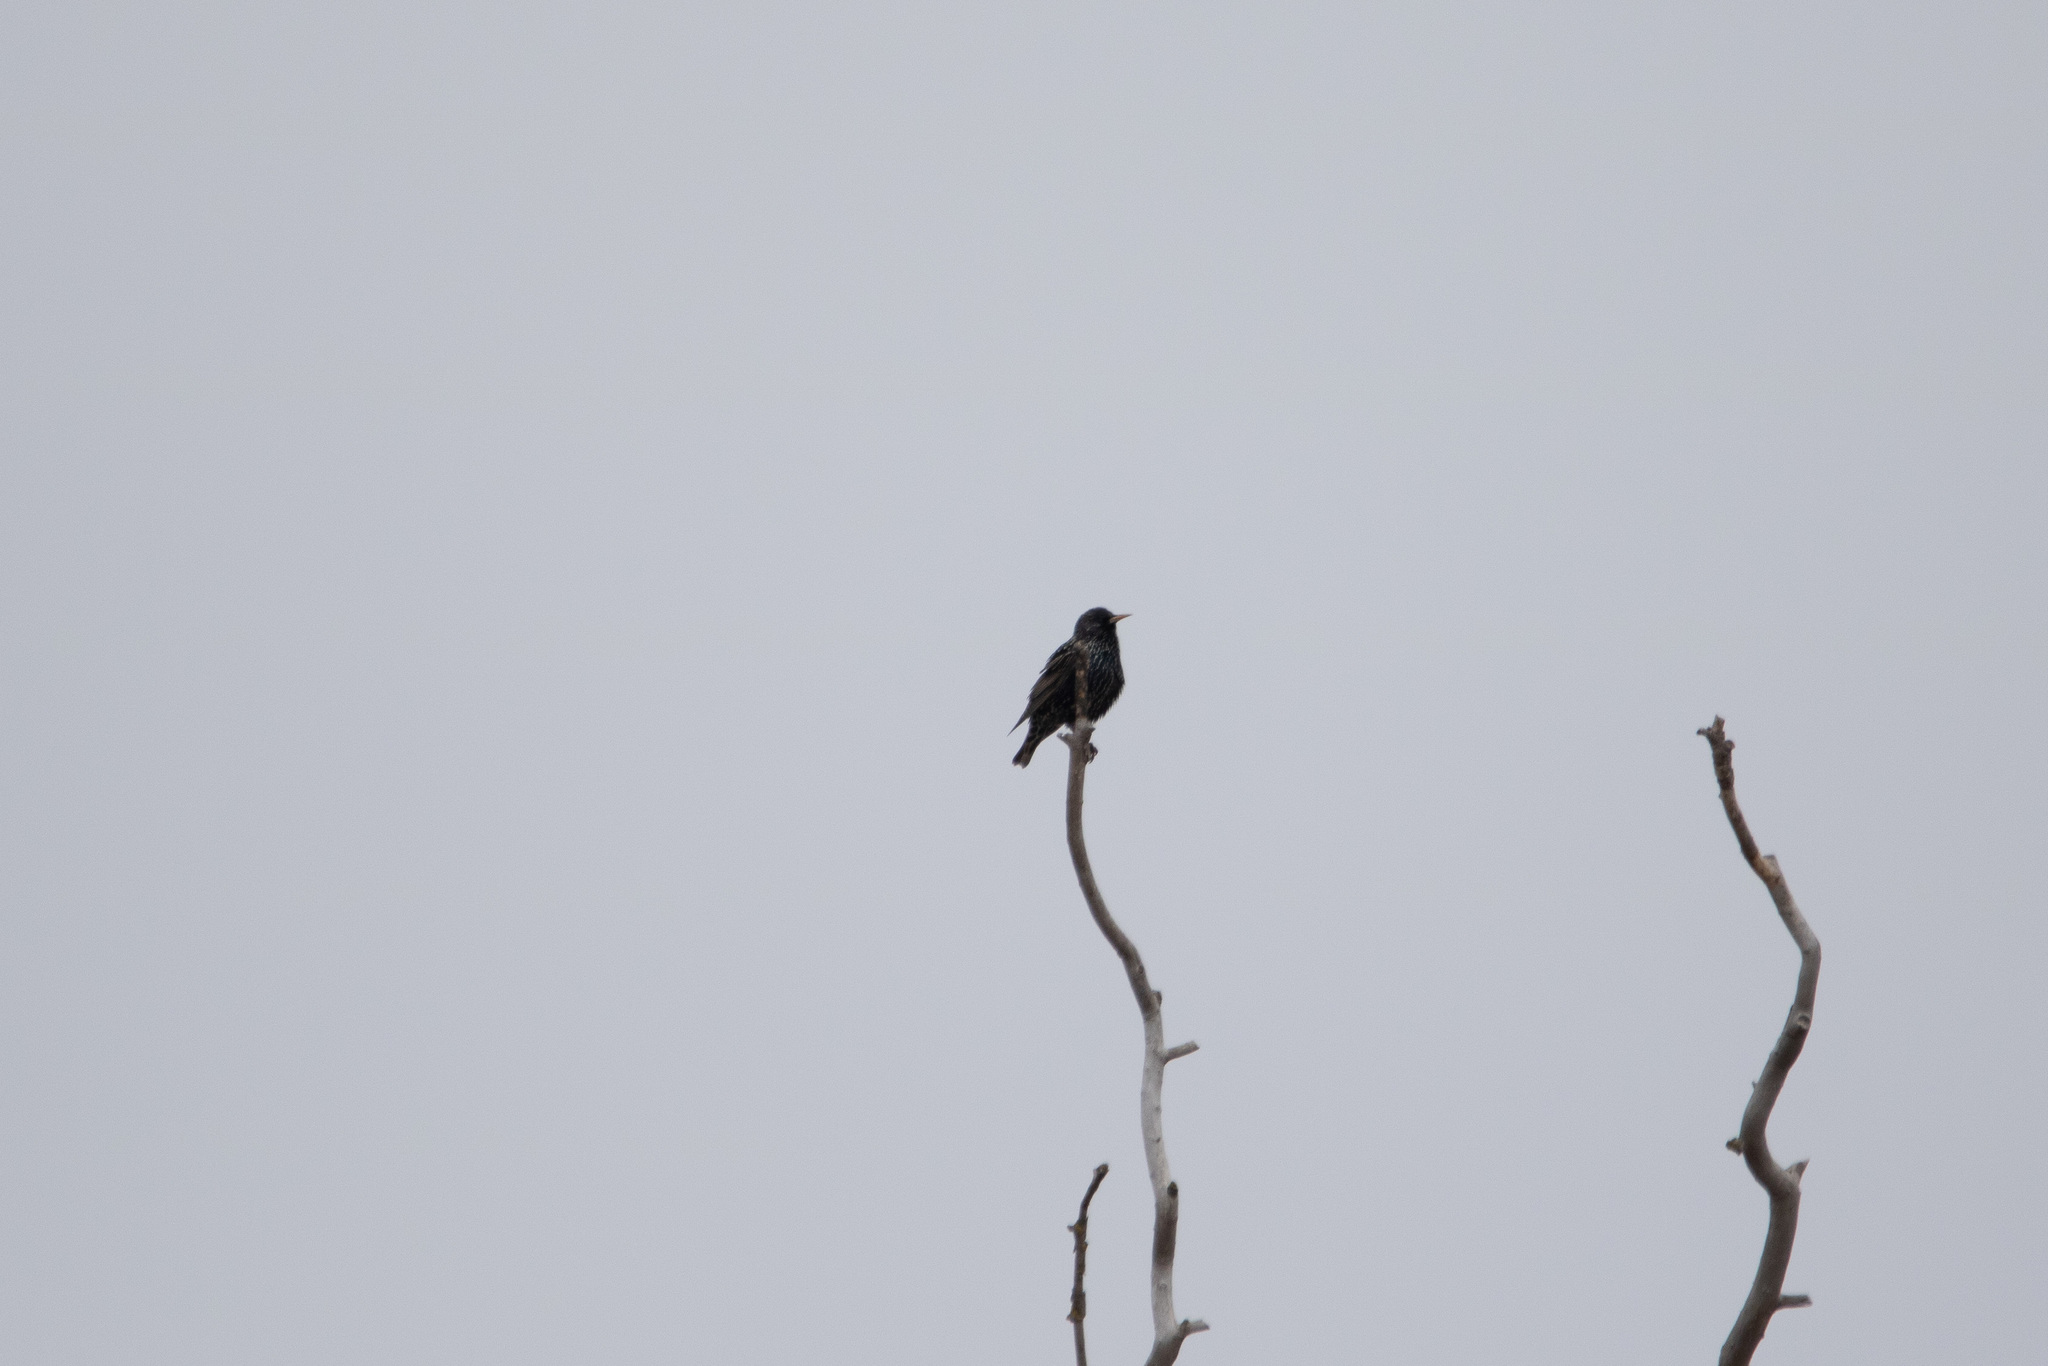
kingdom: Animalia
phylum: Chordata
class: Aves
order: Passeriformes
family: Sturnidae
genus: Sturnus
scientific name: Sturnus vulgaris
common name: Common starling
